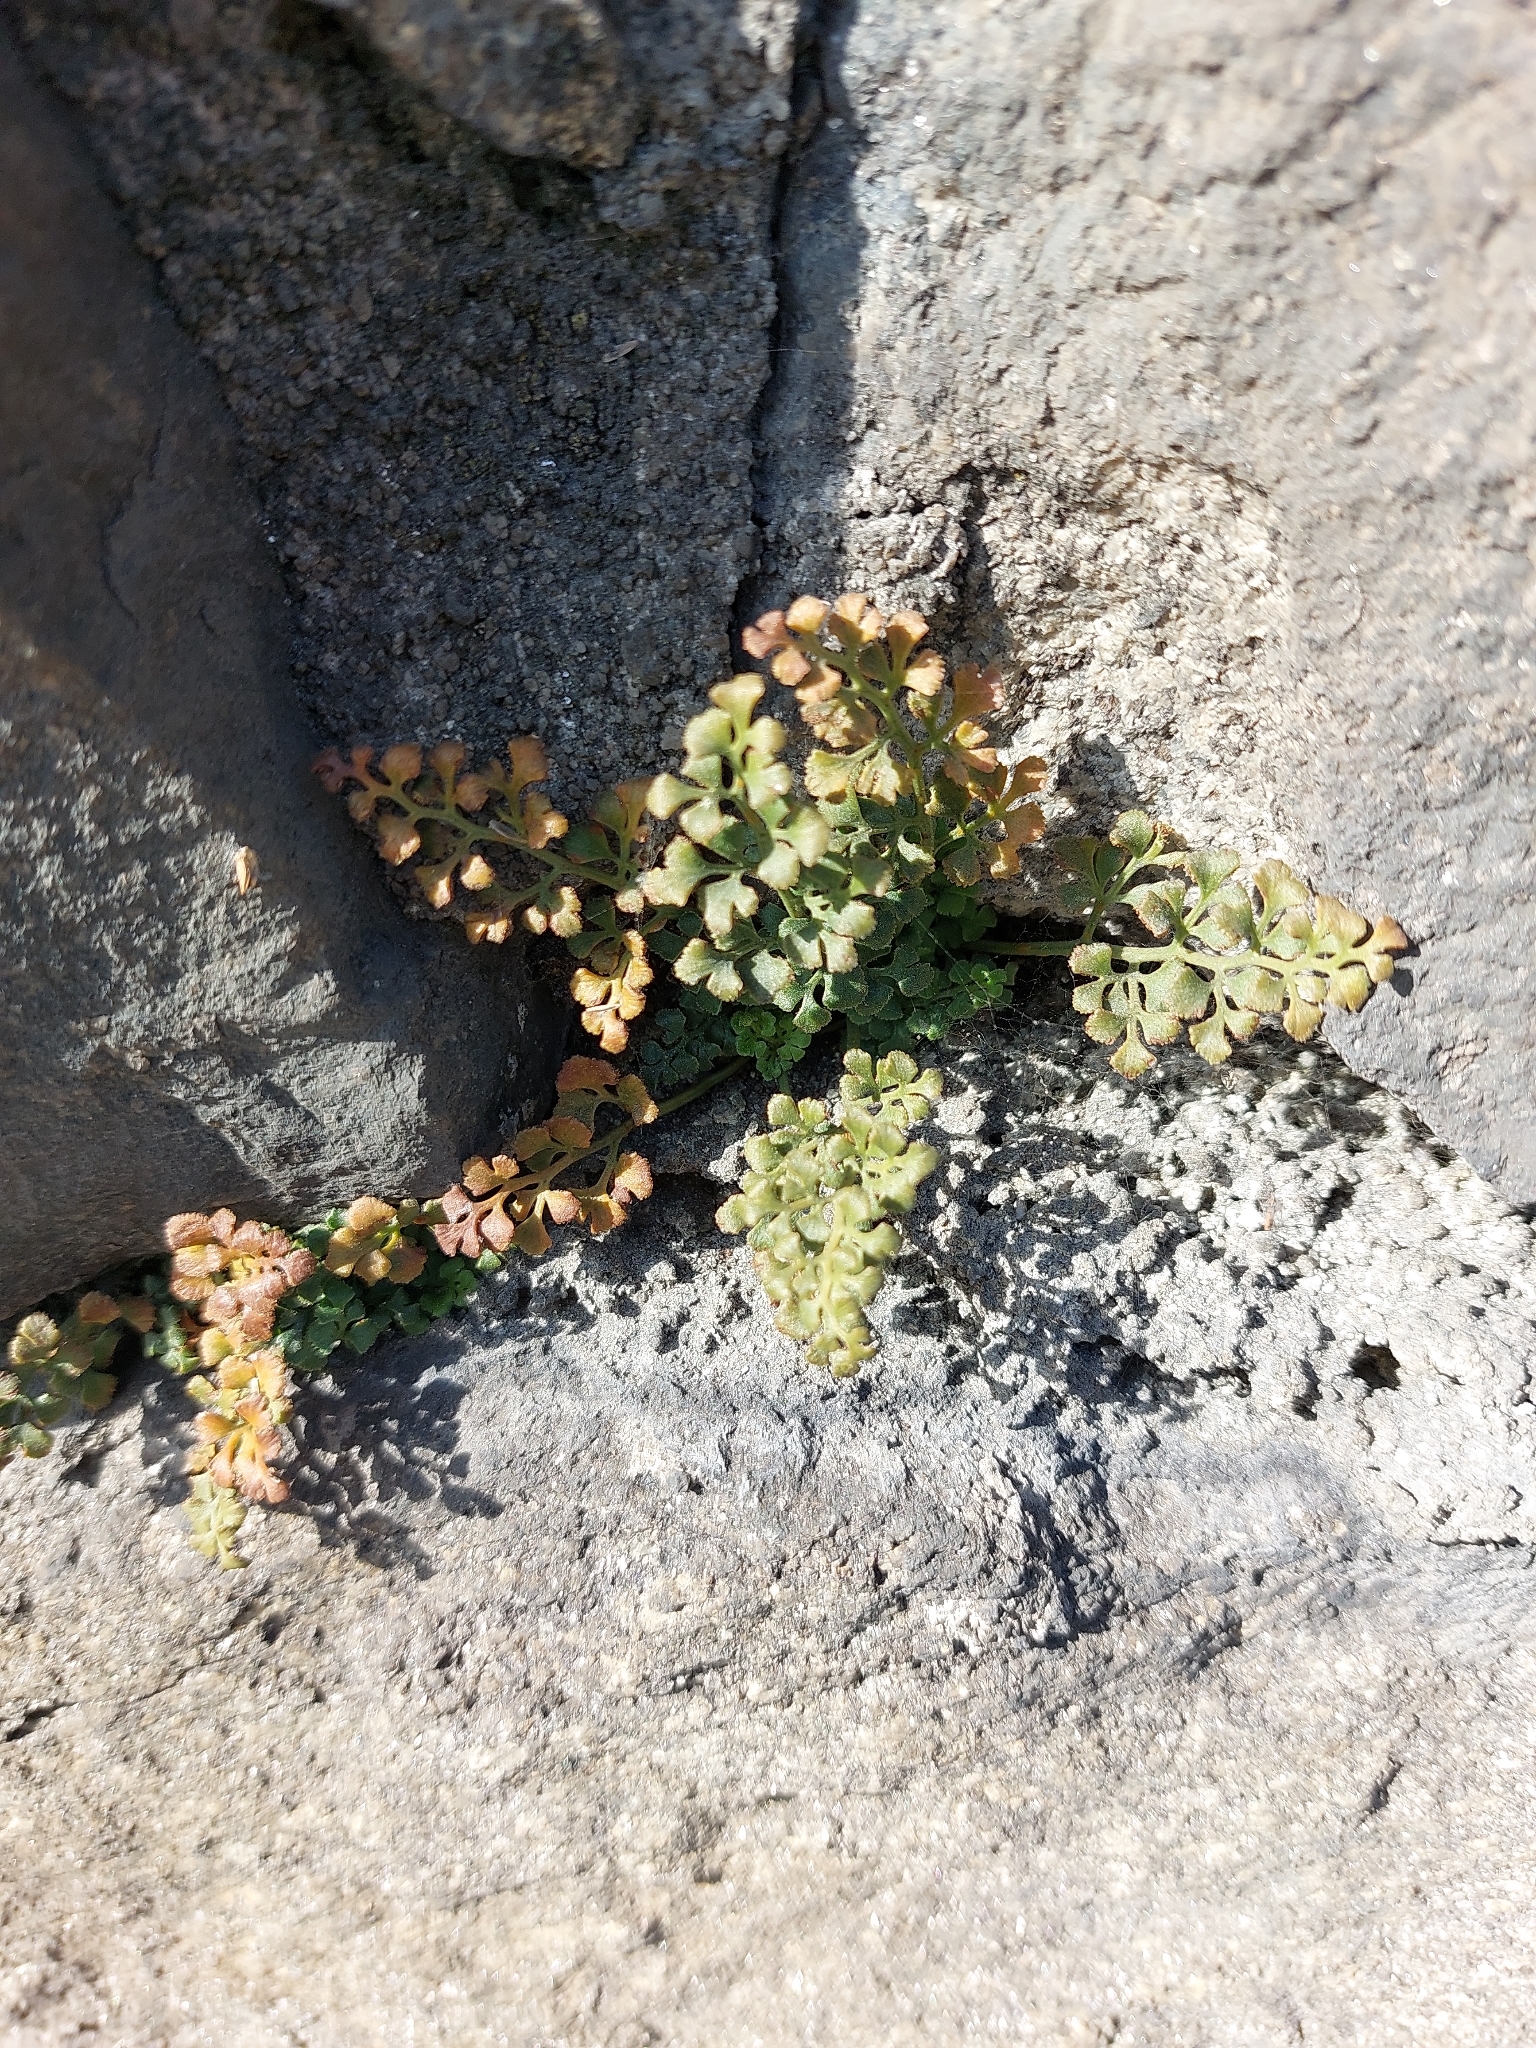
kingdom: Plantae
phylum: Tracheophyta
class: Polypodiopsida
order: Polypodiales
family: Aspleniaceae
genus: Asplenium
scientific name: Asplenium ruta-muraria
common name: Wall-rue
